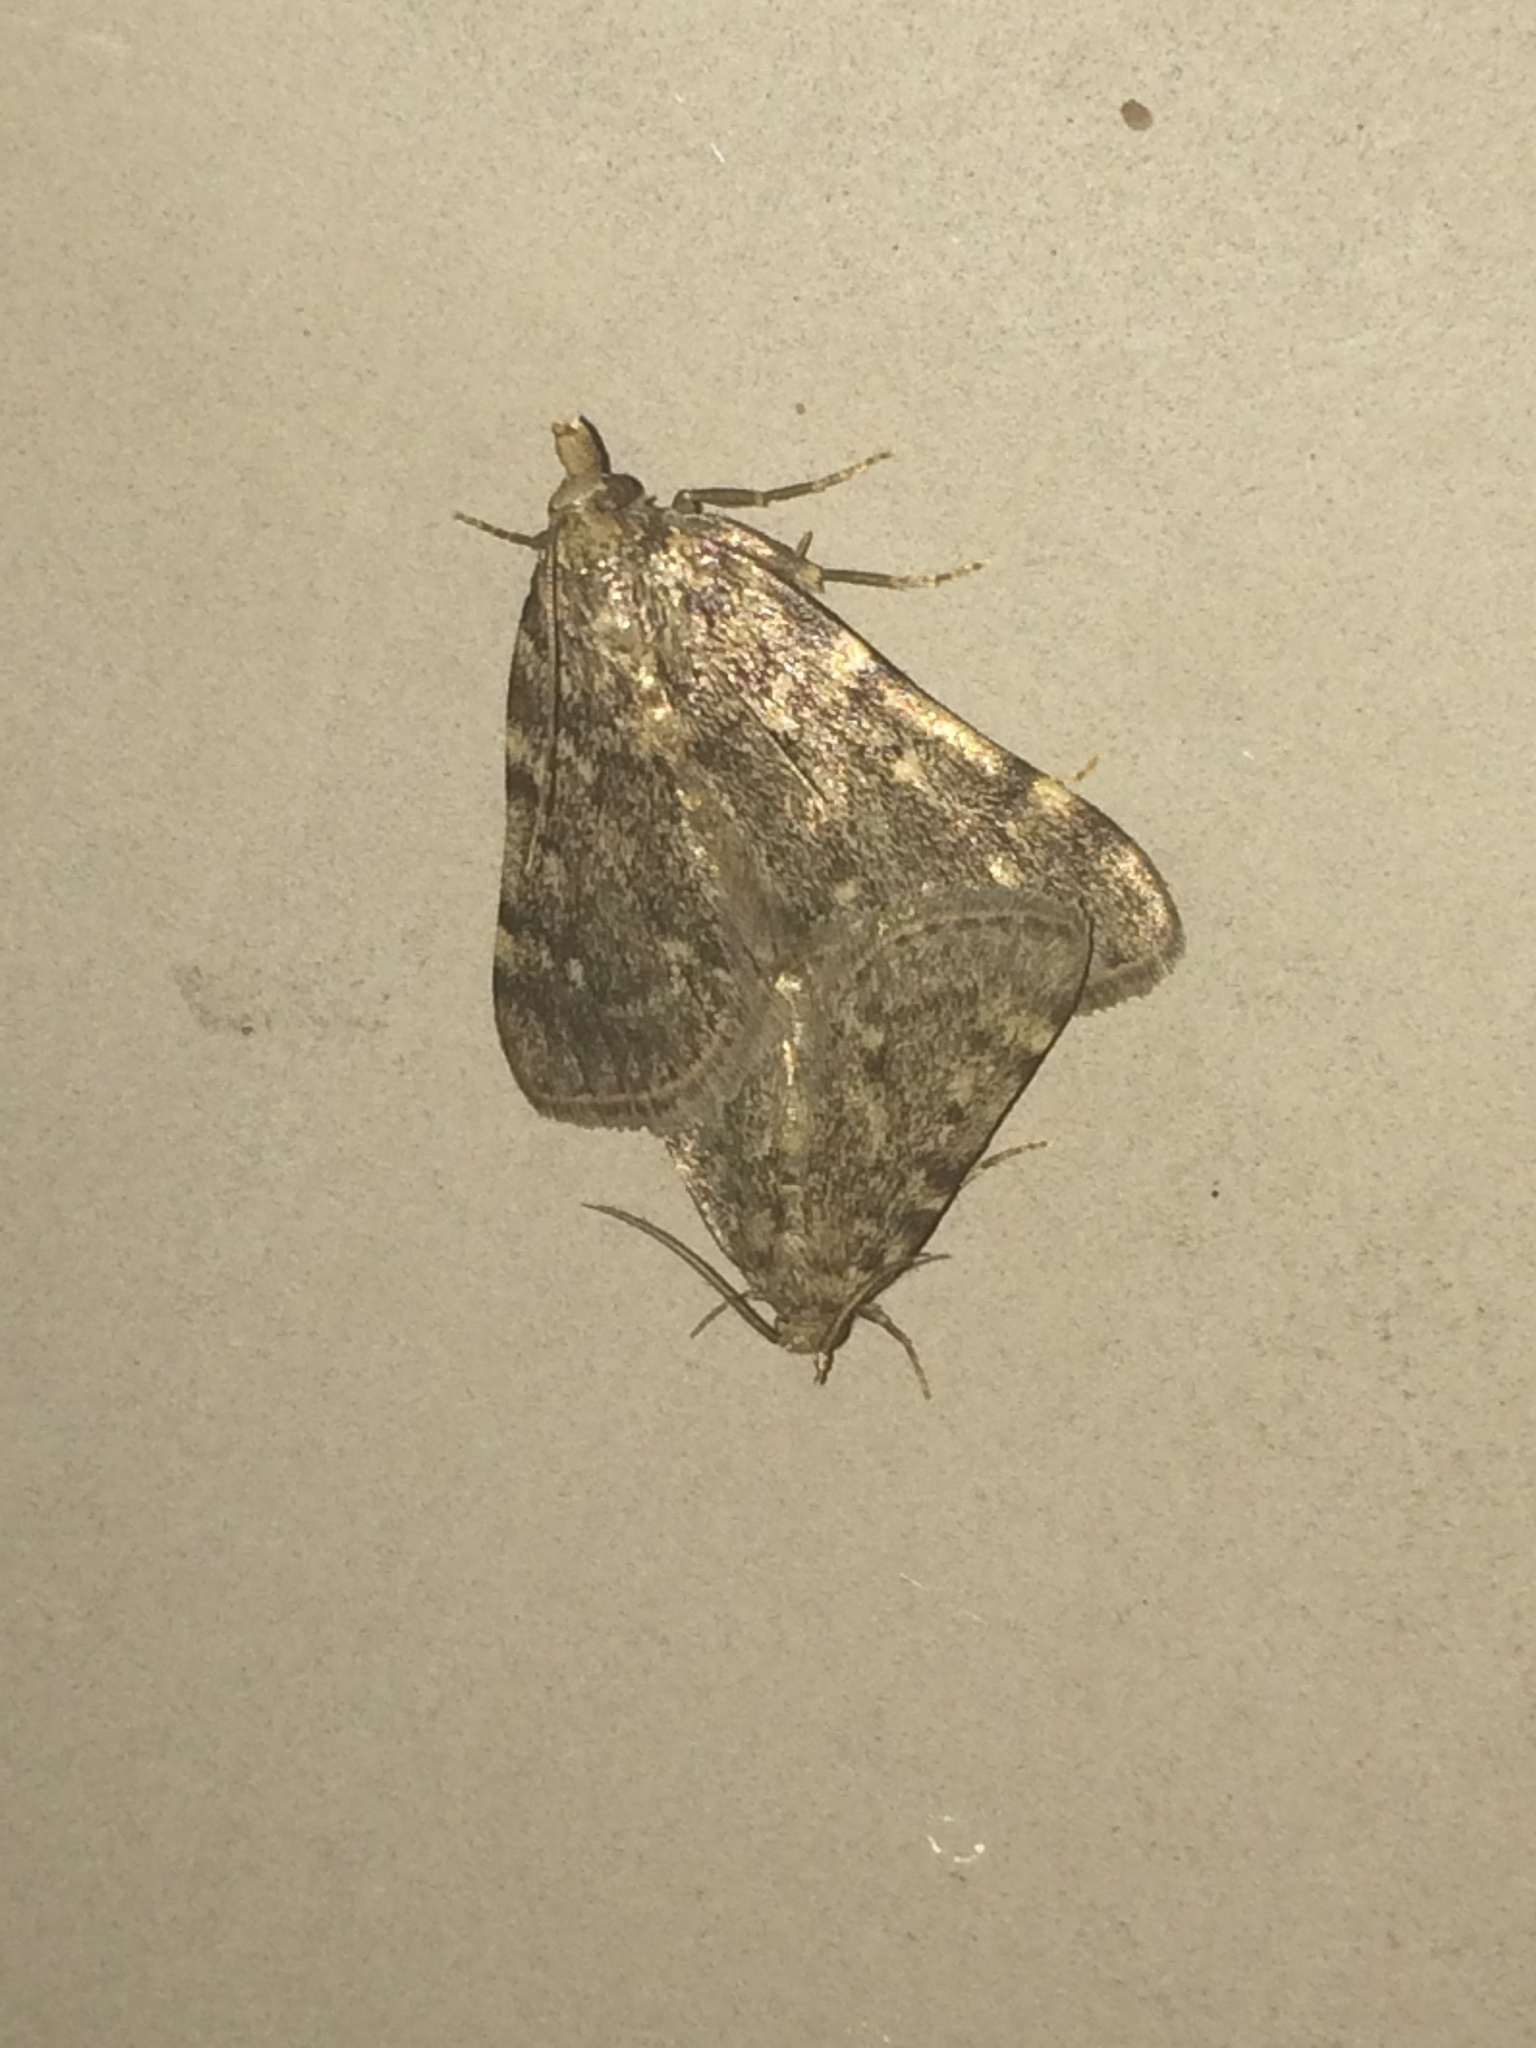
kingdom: Animalia
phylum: Arthropoda
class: Insecta
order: Lepidoptera
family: Pyralidae
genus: Aglossa
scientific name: Aglossa pinguinalis
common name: Large tabby
